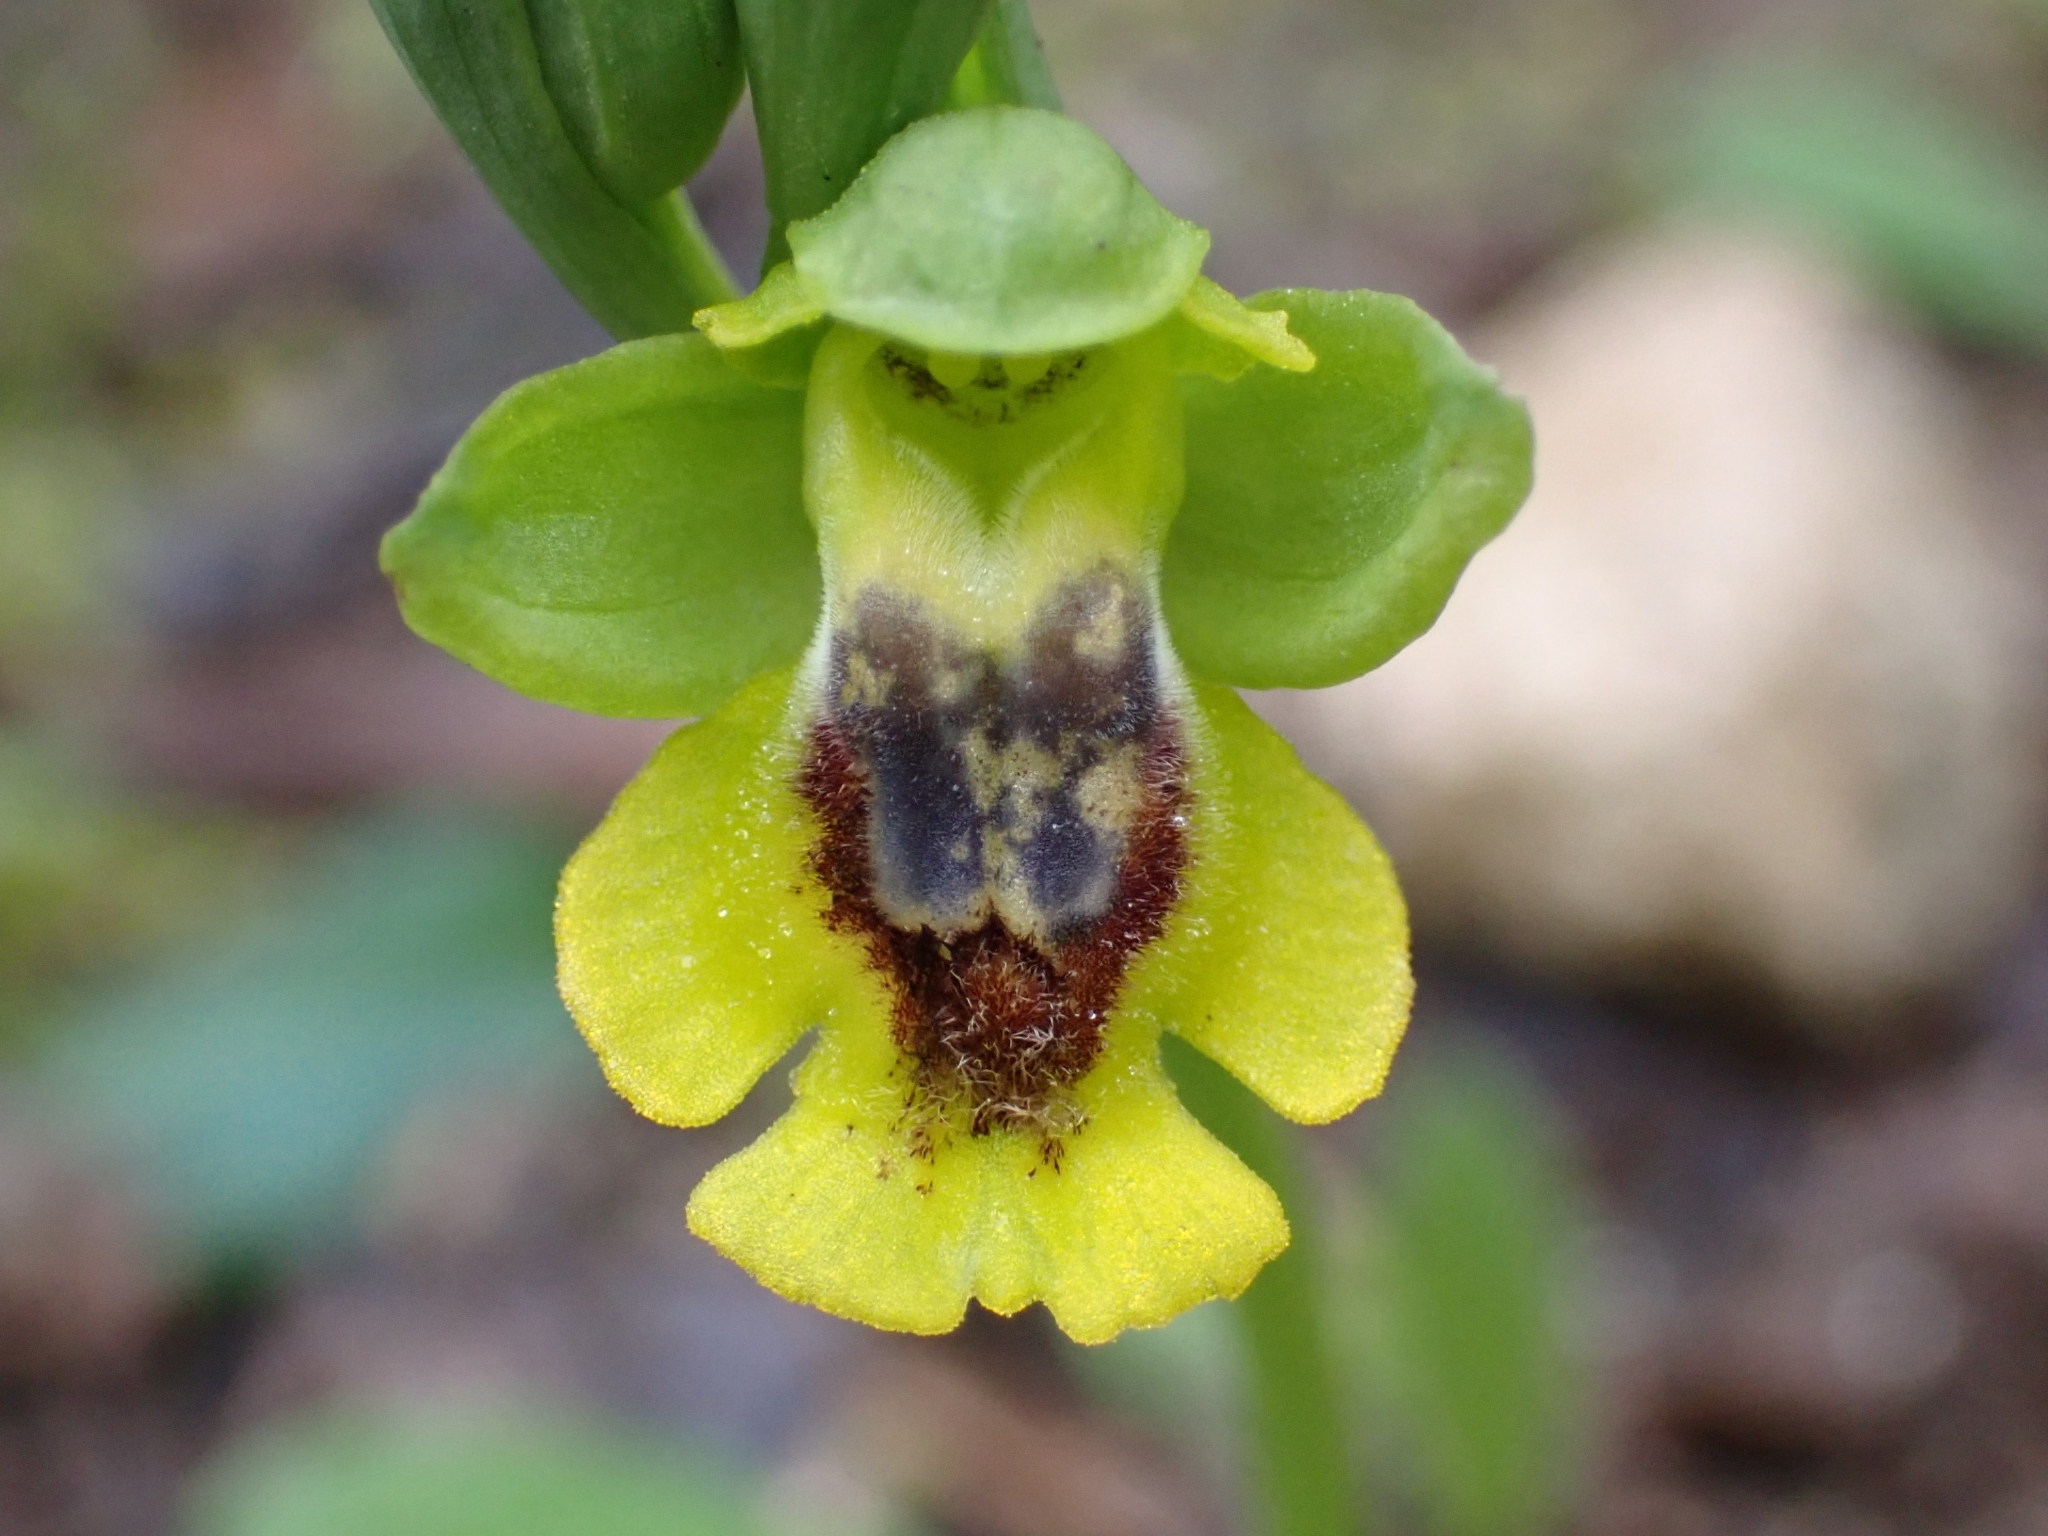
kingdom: Plantae
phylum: Tracheophyta
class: Liliopsida
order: Asparagales
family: Orchidaceae
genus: Ophrys
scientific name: Ophrys lutea
